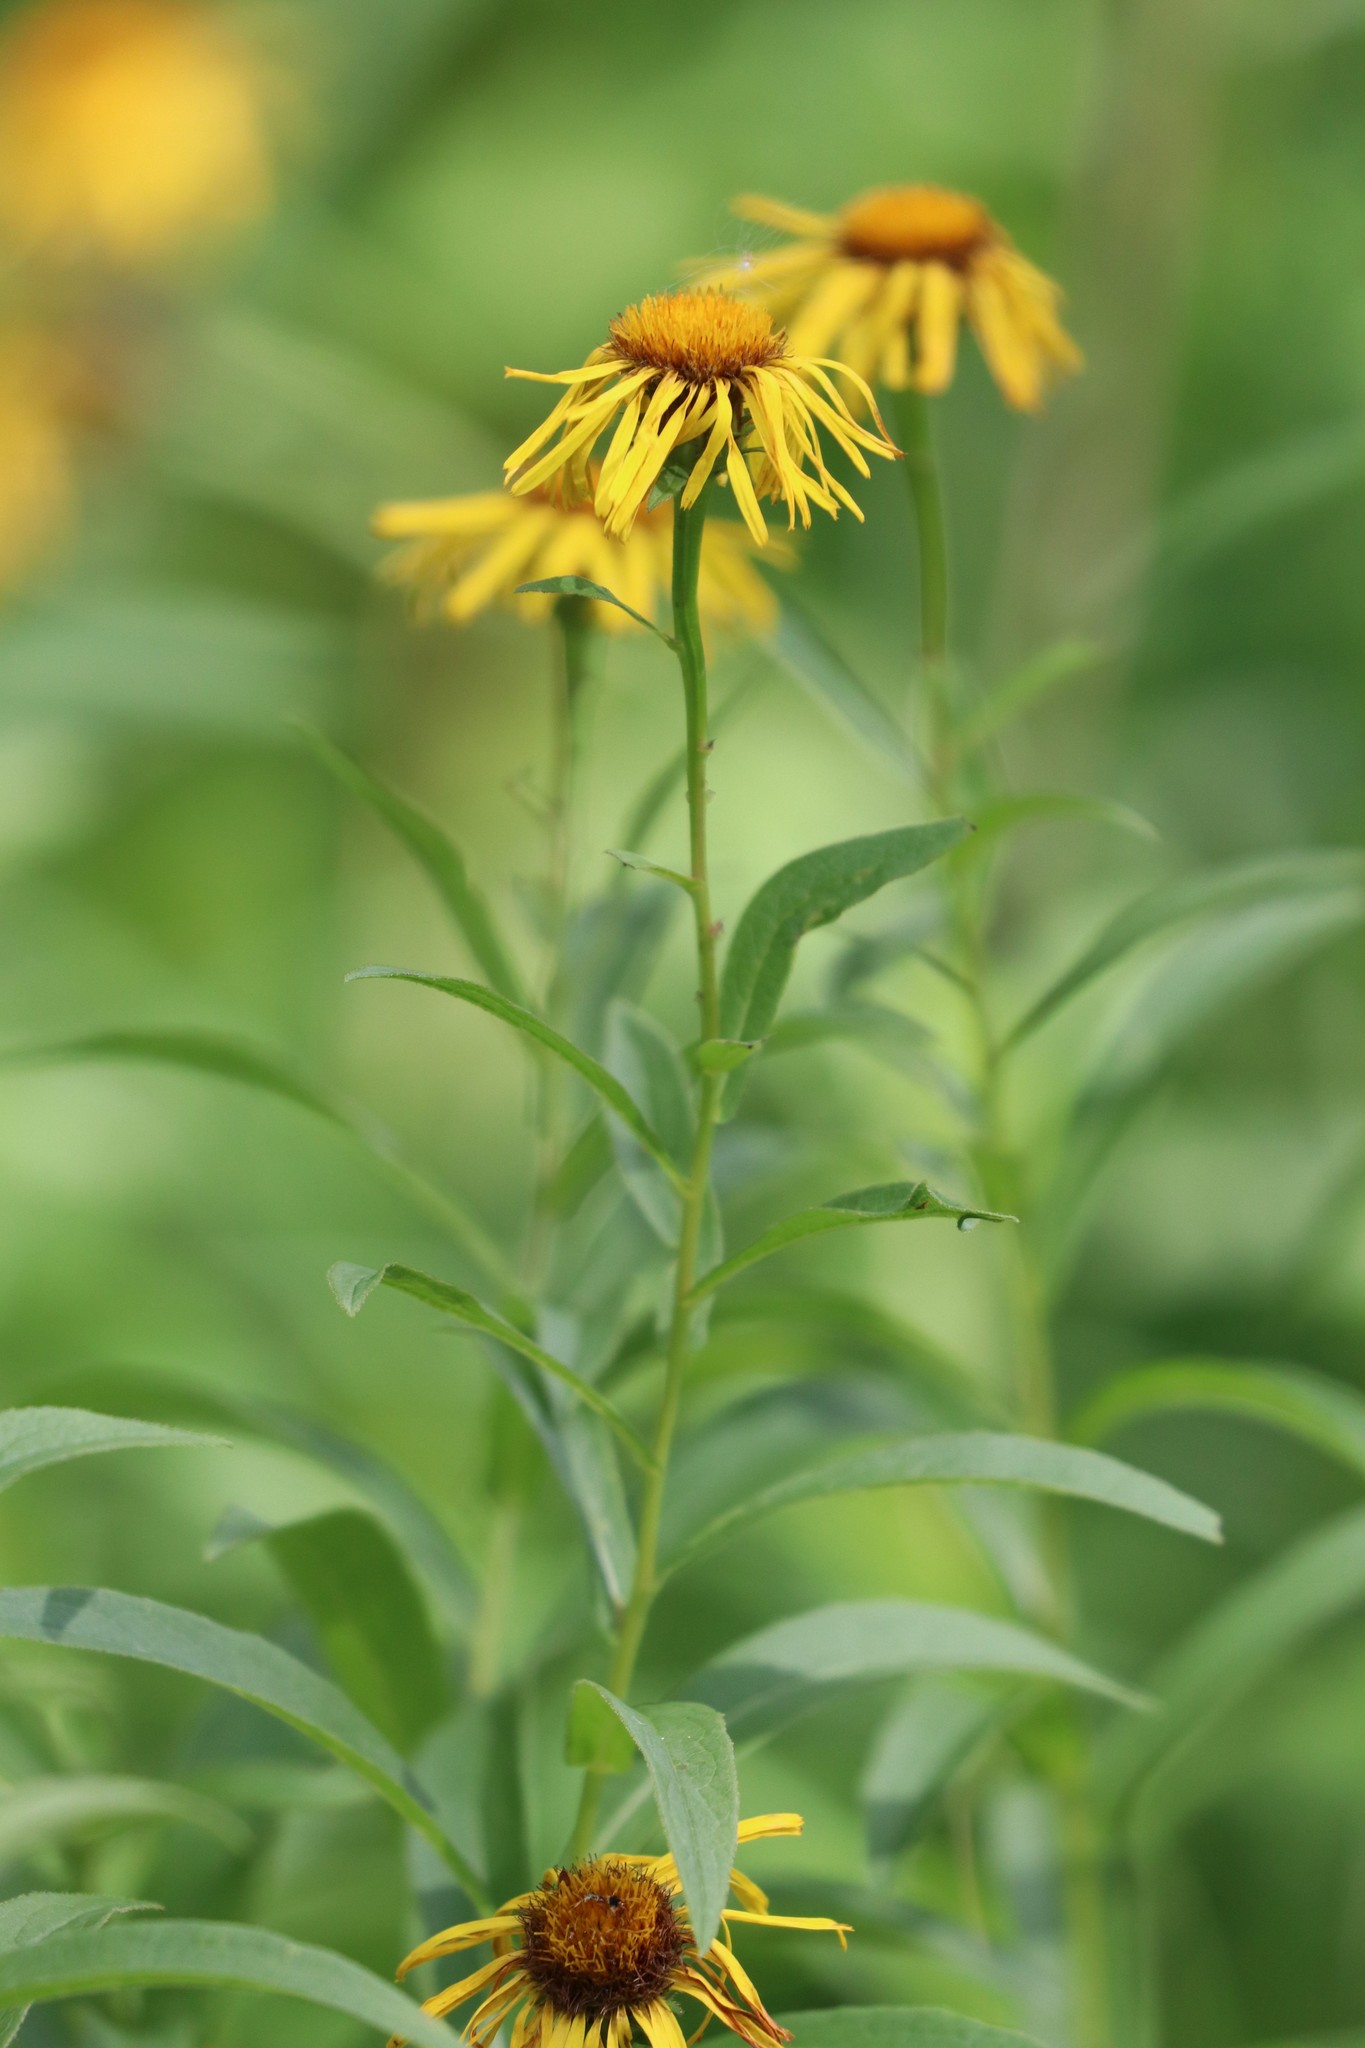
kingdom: Plantae
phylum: Tracheophyta
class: Magnoliopsida
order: Asterales
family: Asteraceae
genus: Pentanema
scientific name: Pentanema salicinum
